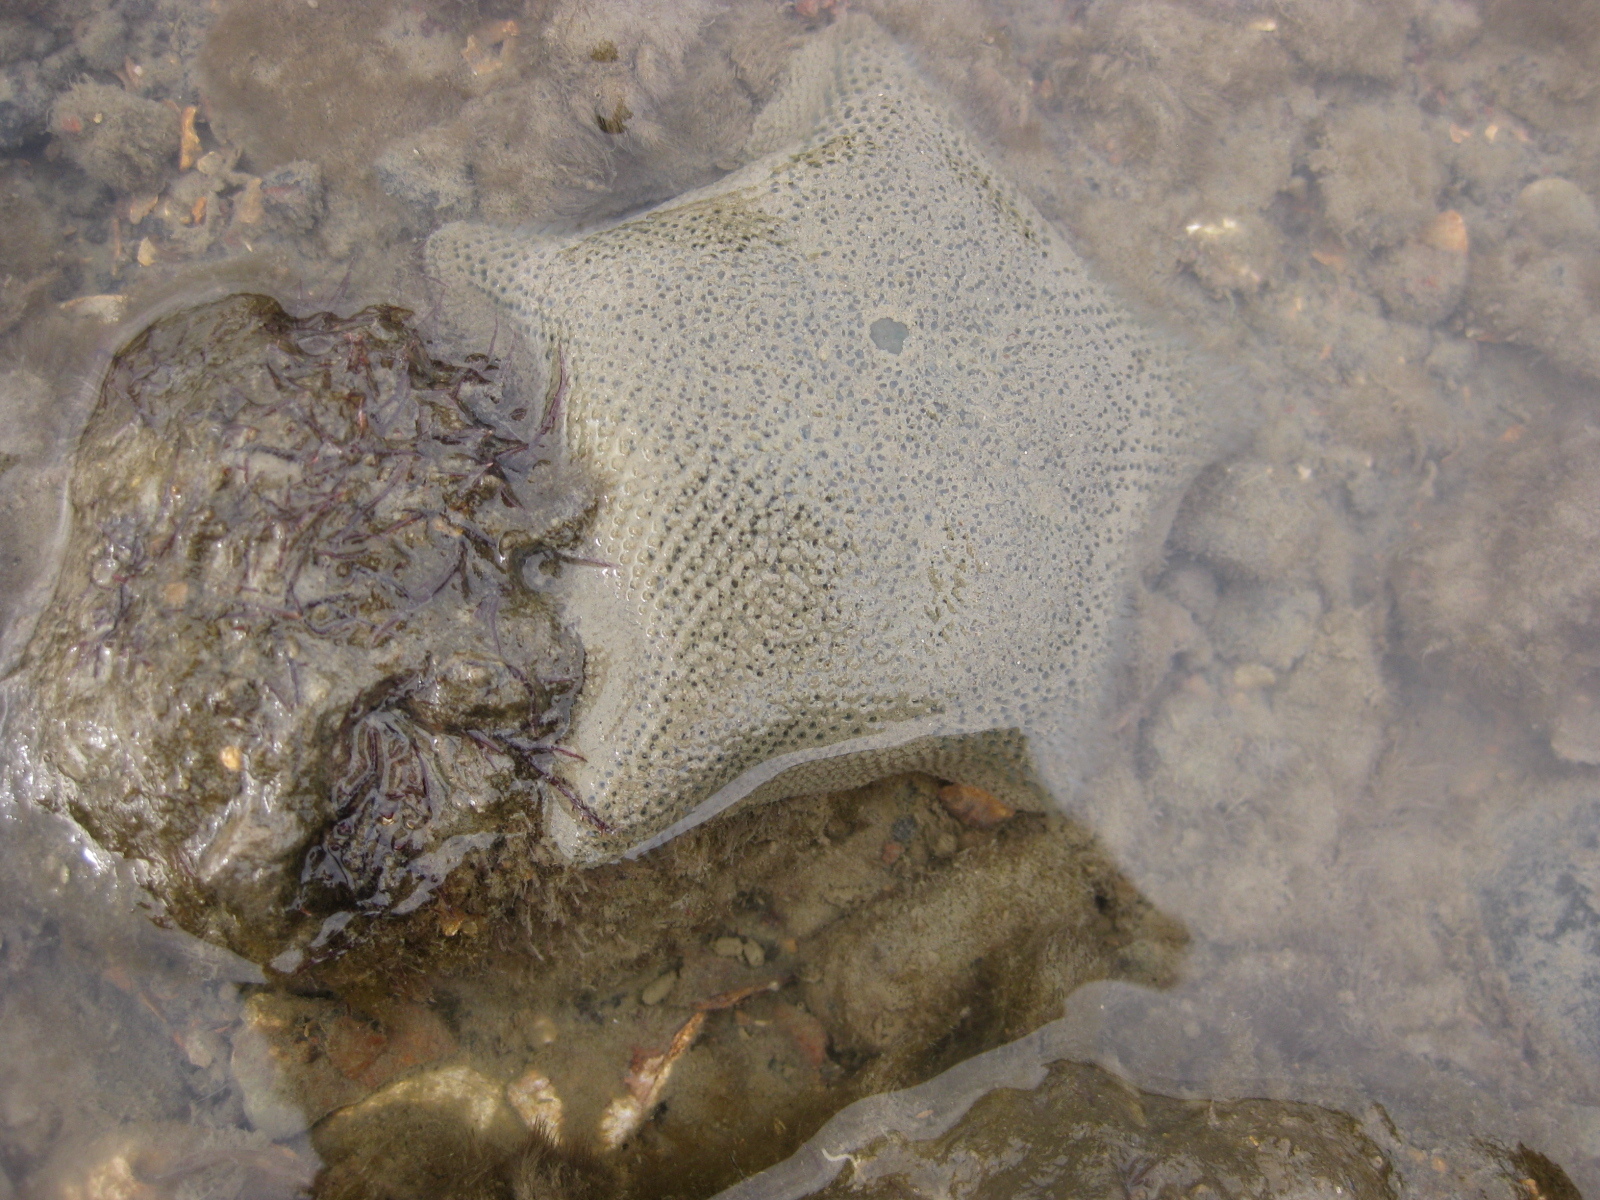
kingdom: Animalia
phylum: Echinodermata
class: Asteroidea
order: Valvatida
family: Asterinidae
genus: Patiriella
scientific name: Patiriella regularis
